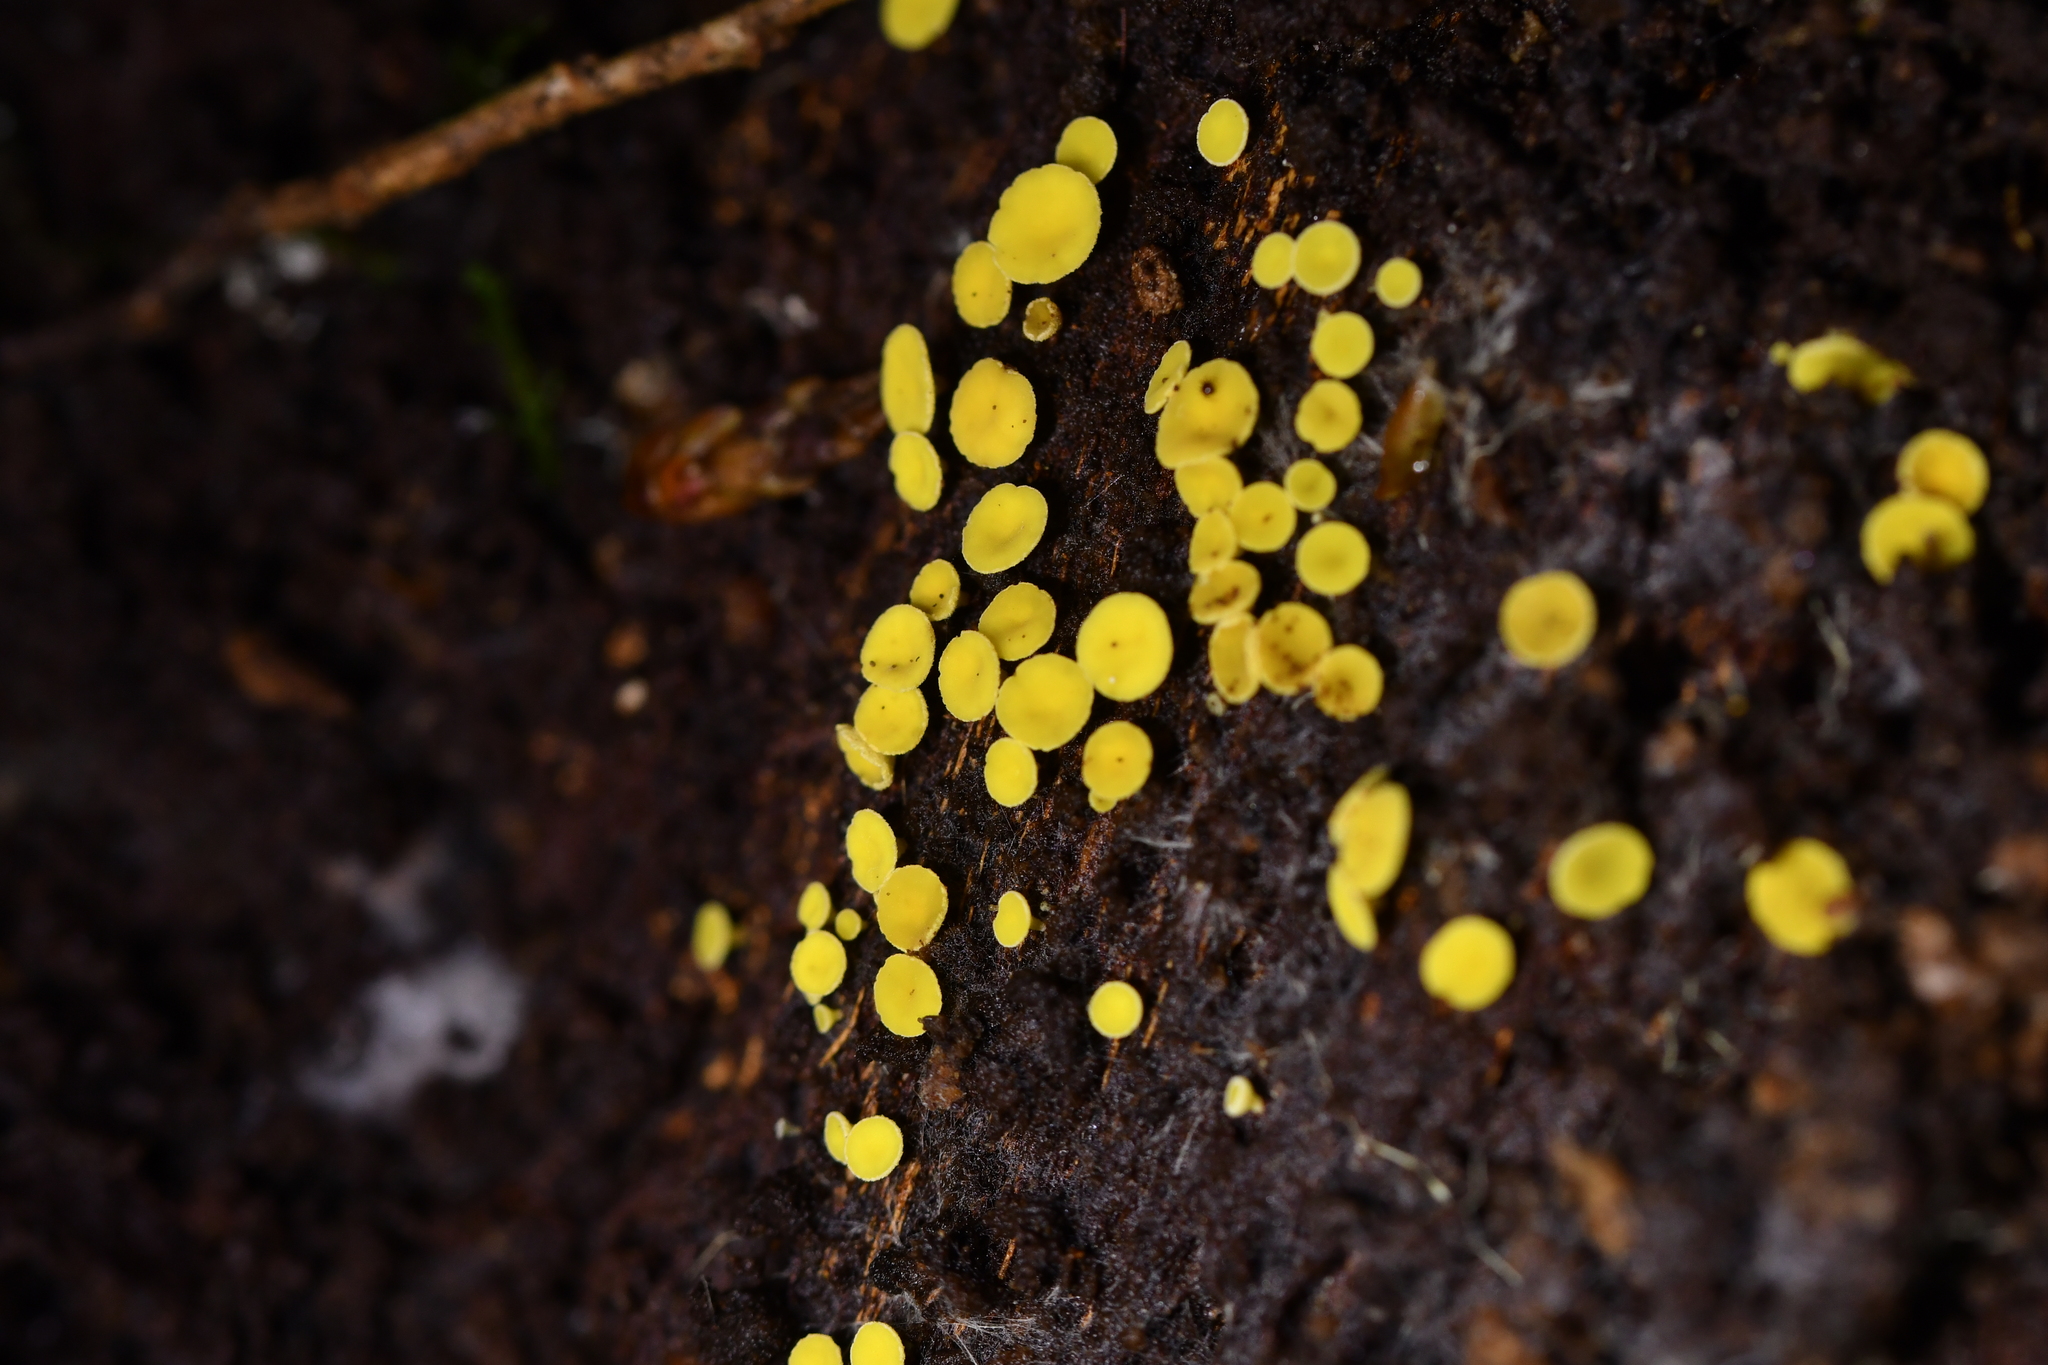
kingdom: Fungi
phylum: Ascomycota
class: Leotiomycetes
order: Helotiales
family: Pezizellaceae
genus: Calycina
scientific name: Calycina citrina
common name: Yellow fairy cups
